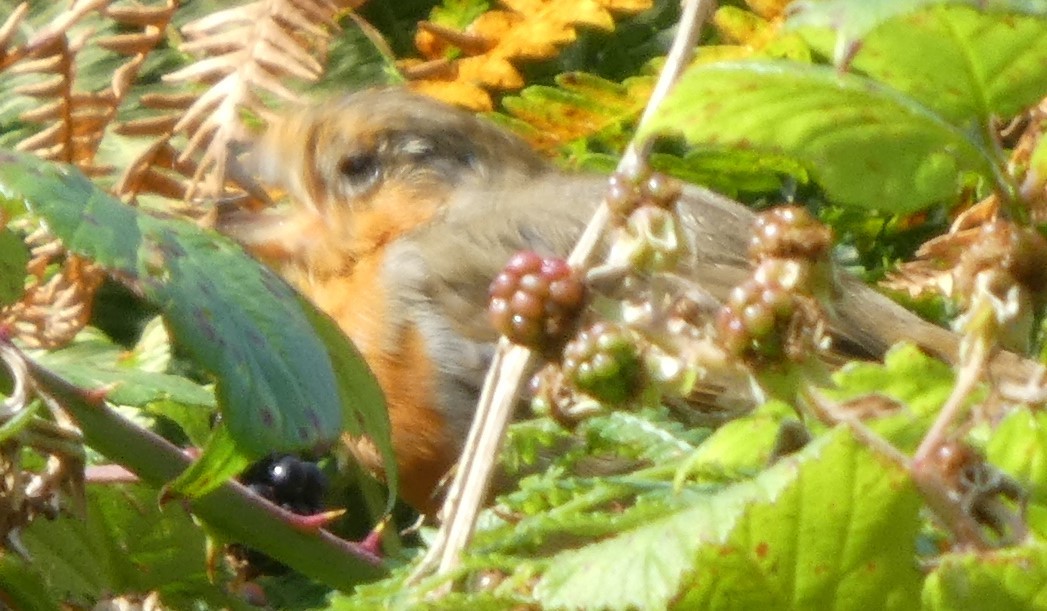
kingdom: Animalia
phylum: Chordata
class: Aves
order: Passeriformes
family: Muscicapidae
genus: Erithacus
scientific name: Erithacus rubecula
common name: European robin
